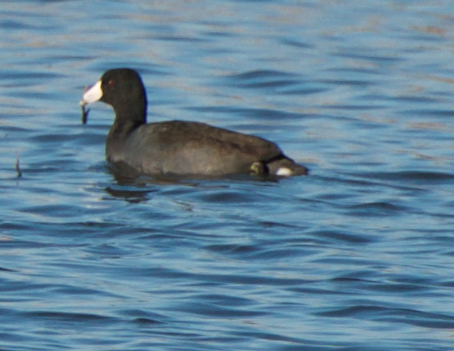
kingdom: Animalia
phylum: Chordata
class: Aves
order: Gruiformes
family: Rallidae
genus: Fulica
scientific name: Fulica americana
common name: American coot
